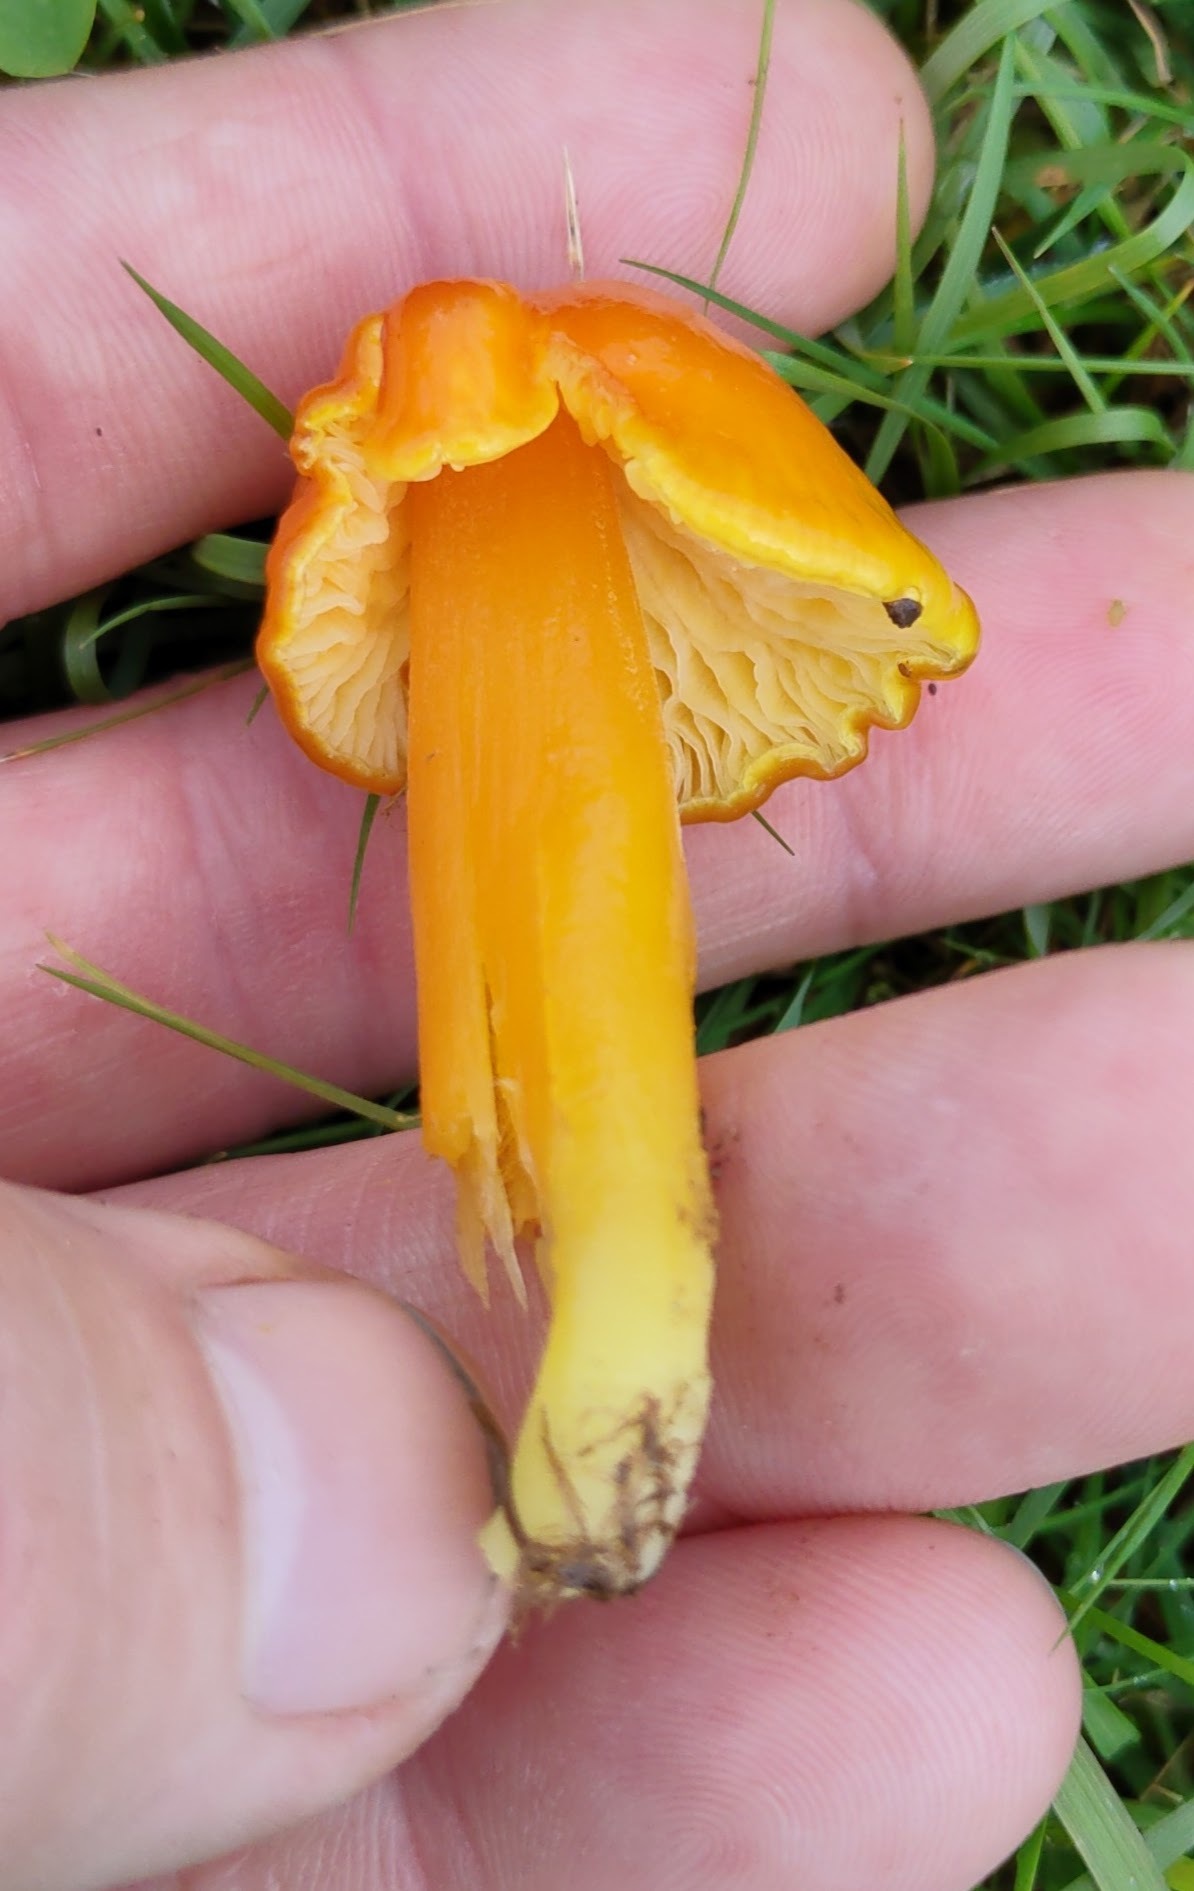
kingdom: Fungi
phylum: Basidiomycota
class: Agaricomycetes
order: Agaricales
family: Hygrophoraceae
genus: Hygrocybe
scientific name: Hygrocybe chlorophana
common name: Golden waxcap
